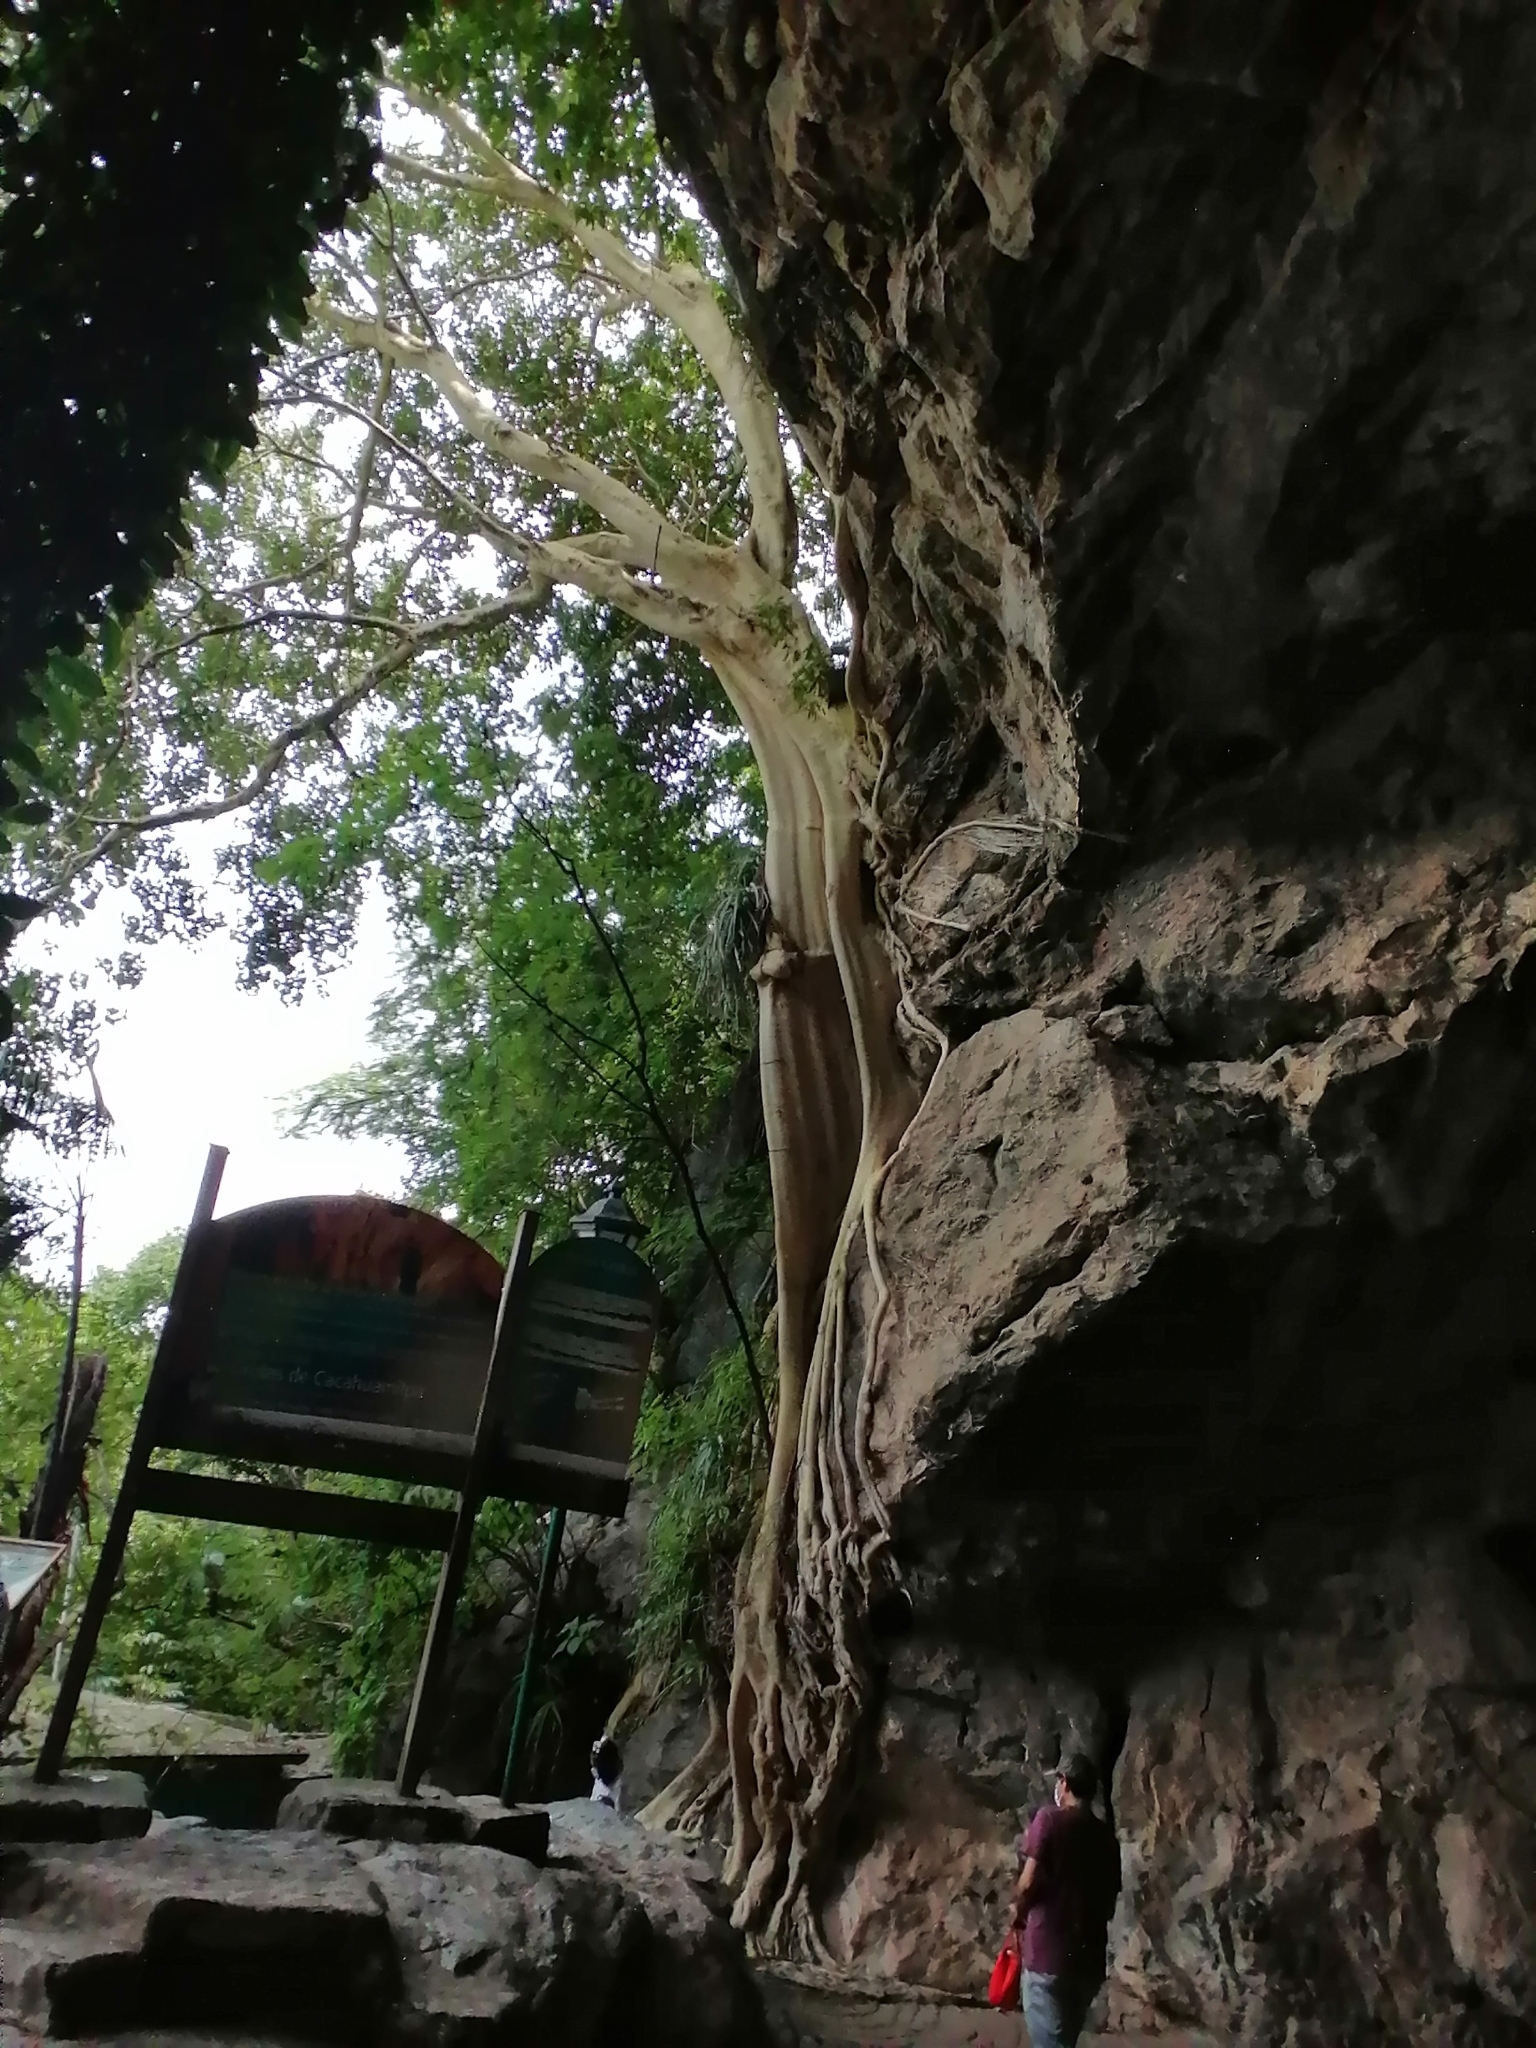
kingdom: Plantae
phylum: Tracheophyta
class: Magnoliopsida
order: Rosales
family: Moraceae
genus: Ficus
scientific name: Ficus petiolaris
